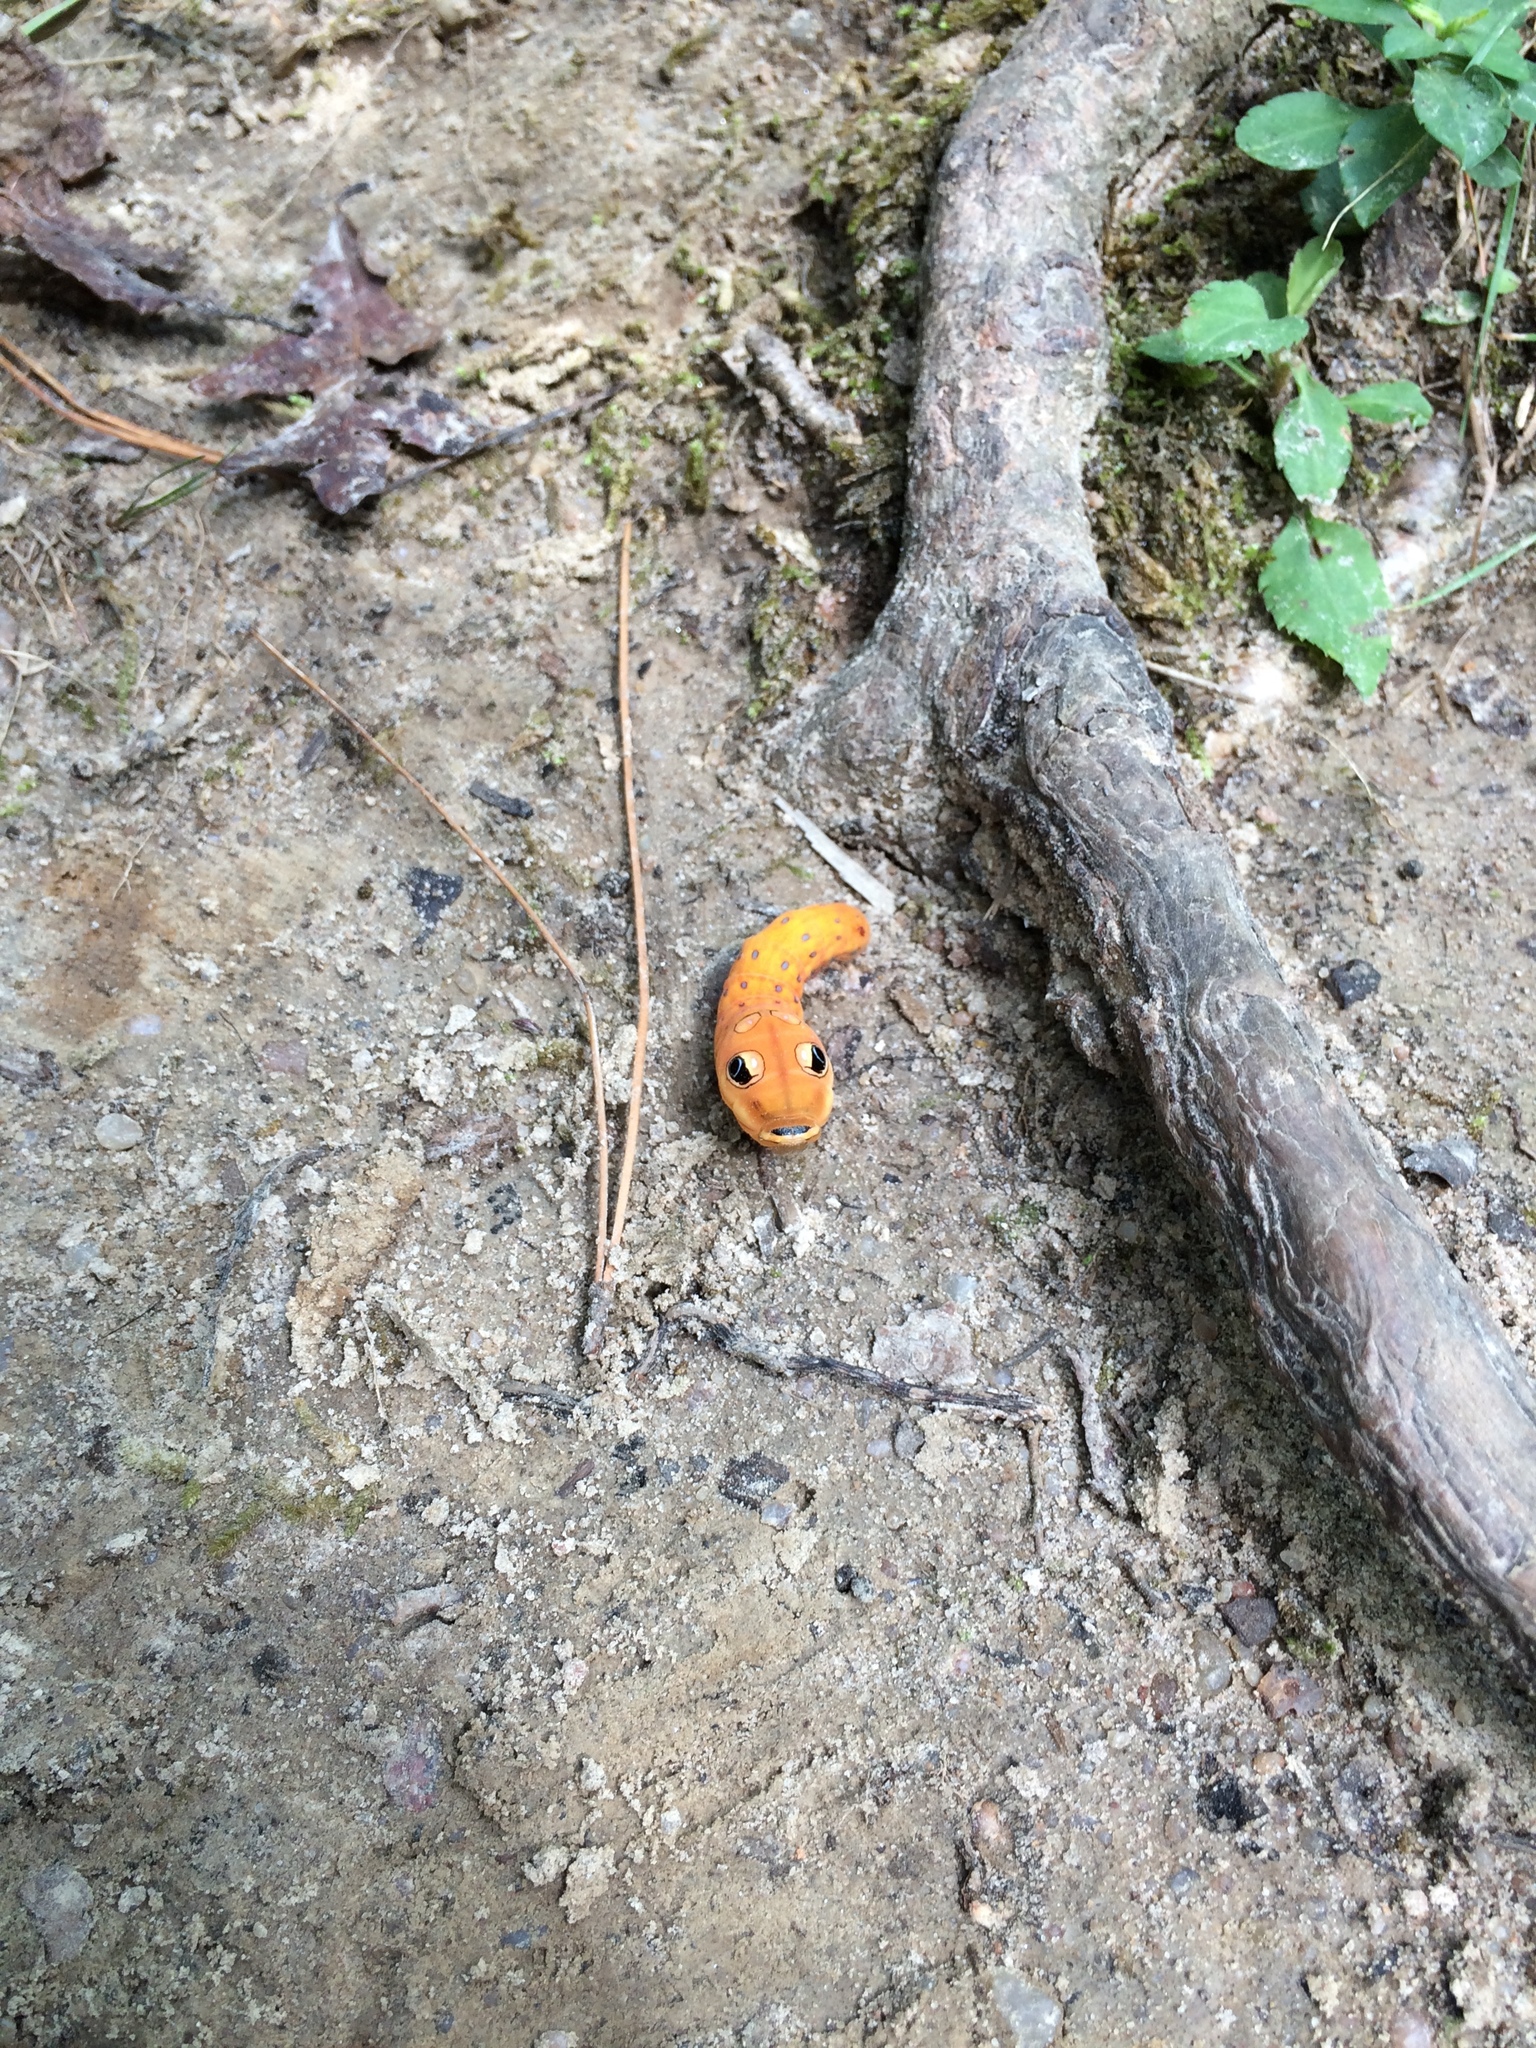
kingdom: Animalia
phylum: Arthropoda
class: Insecta
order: Lepidoptera
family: Papilionidae
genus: Papilio
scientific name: Papilio troilus
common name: Spicebush swallowtail
